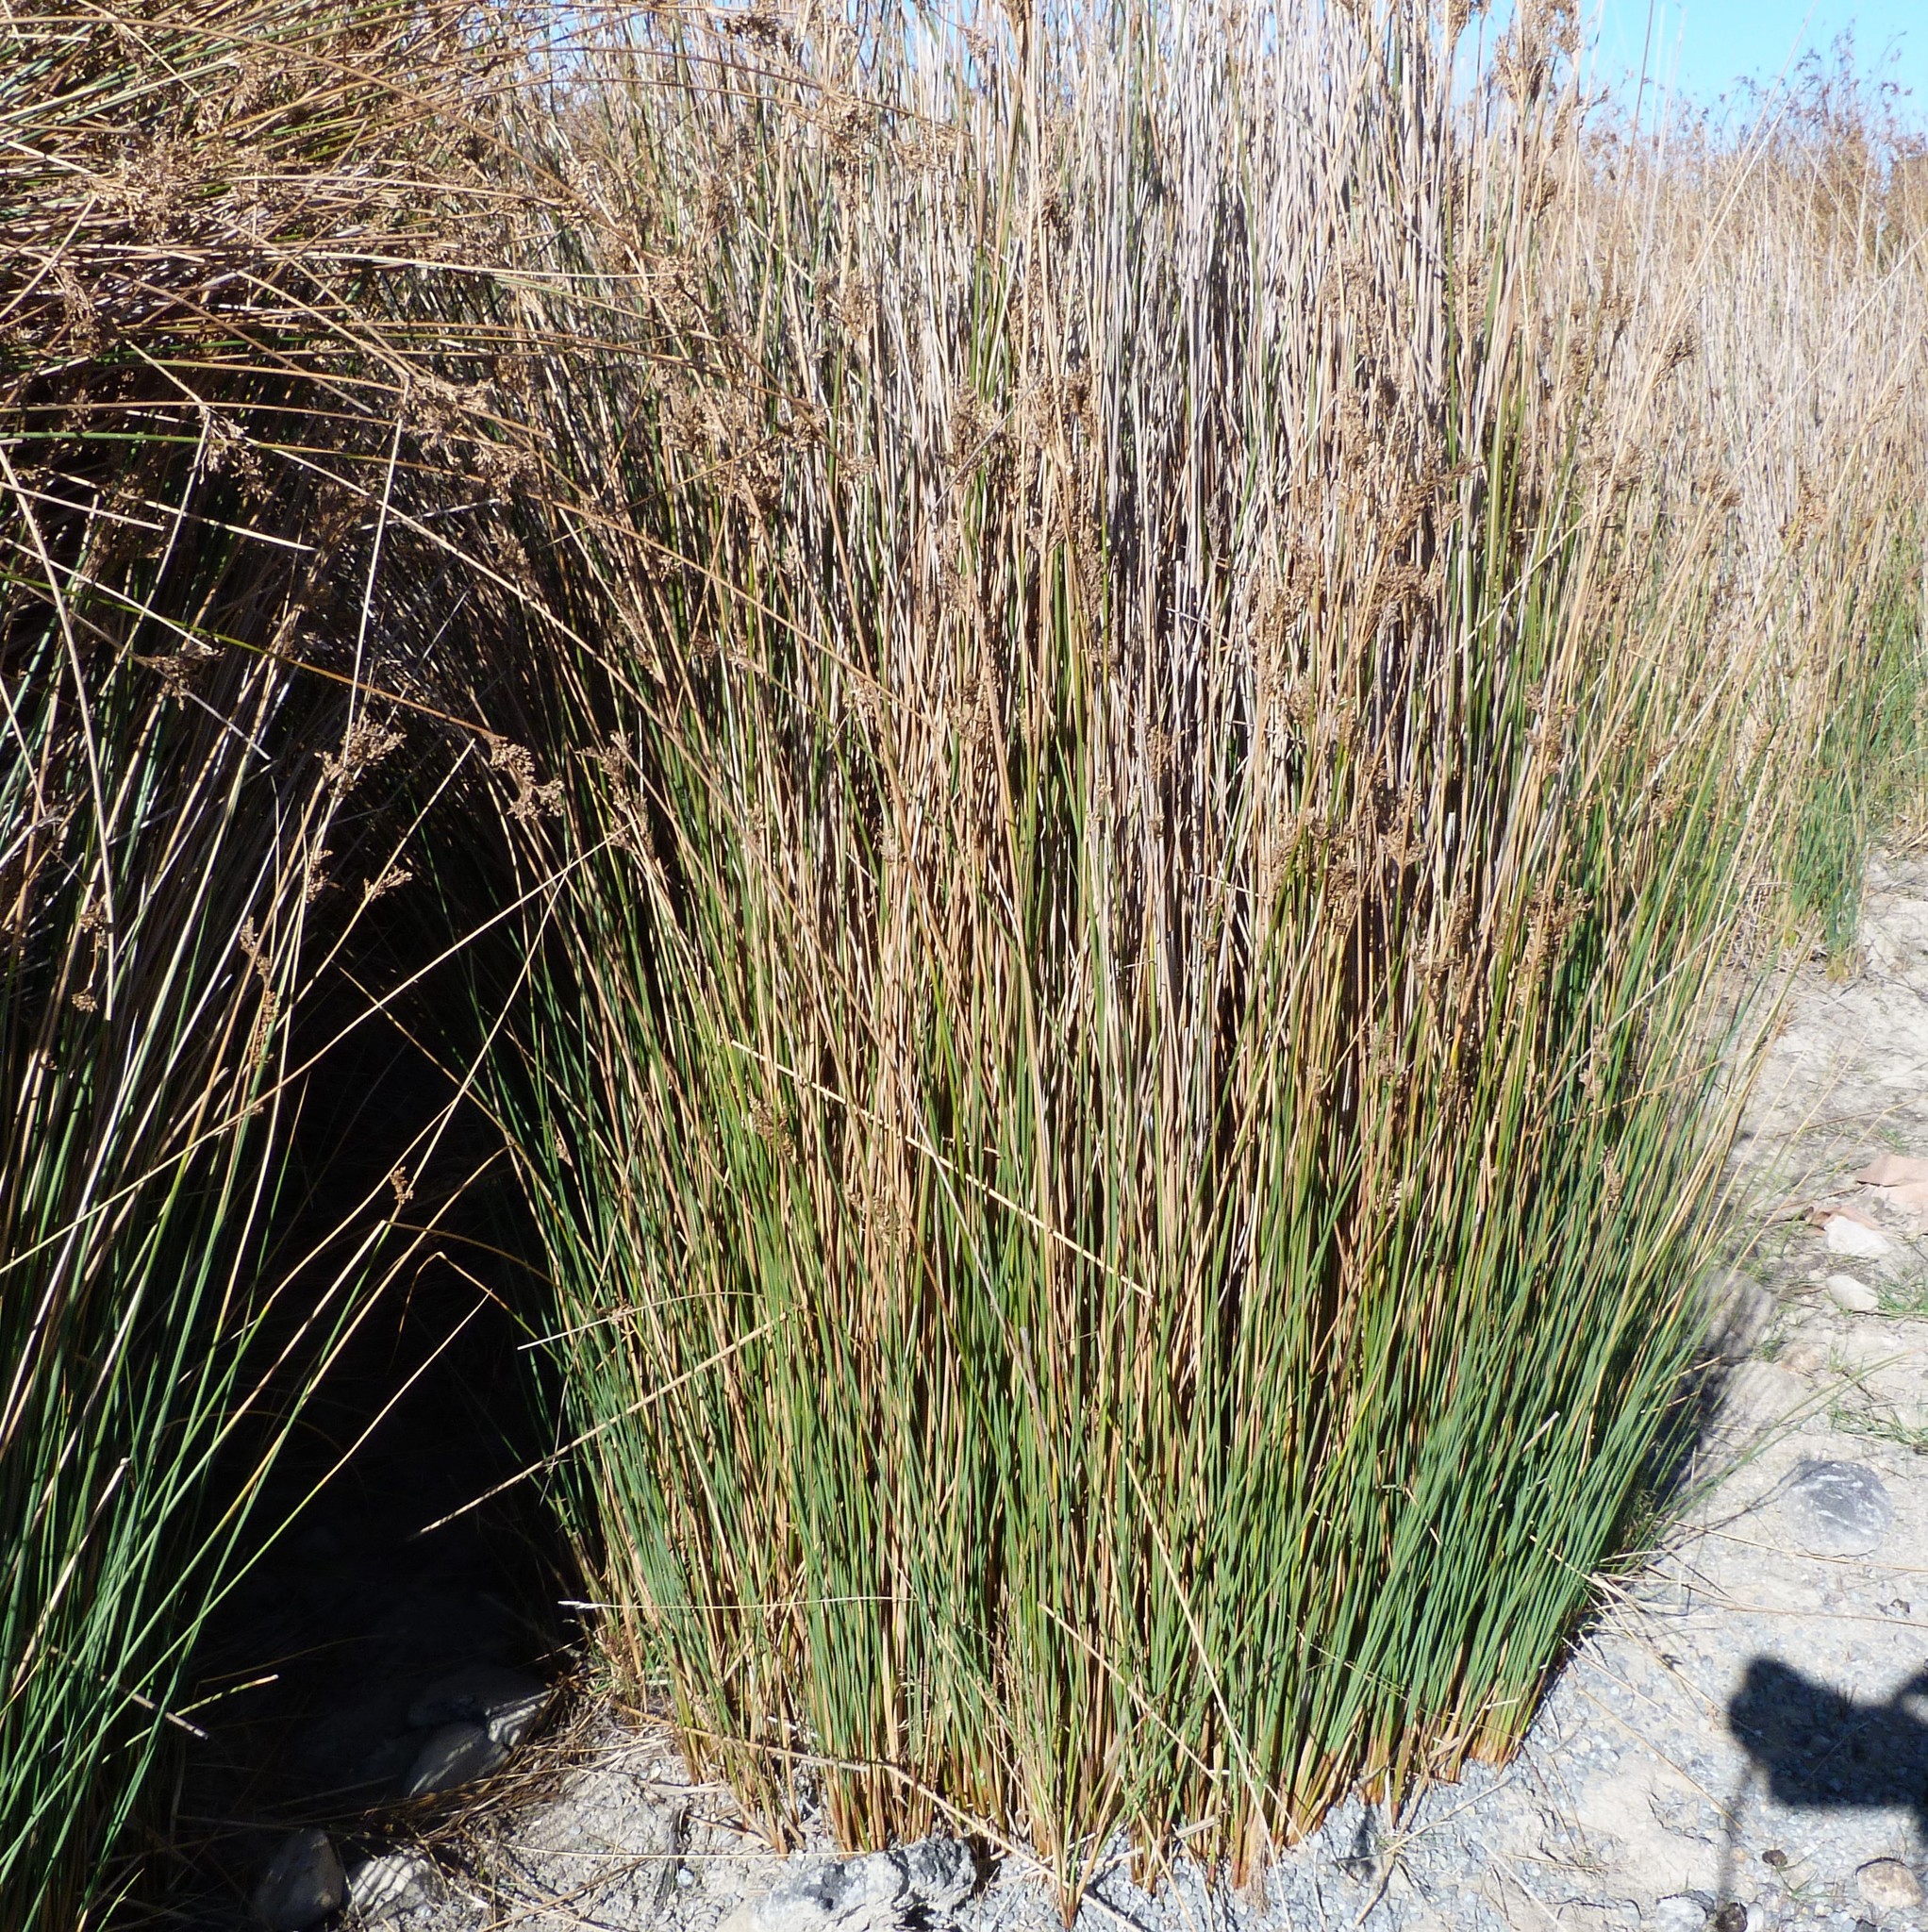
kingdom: Plantae
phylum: Tracheophyta
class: Liliopsida
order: Poales
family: Juncaceae
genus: Juncus
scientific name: Juncus sarophorus
